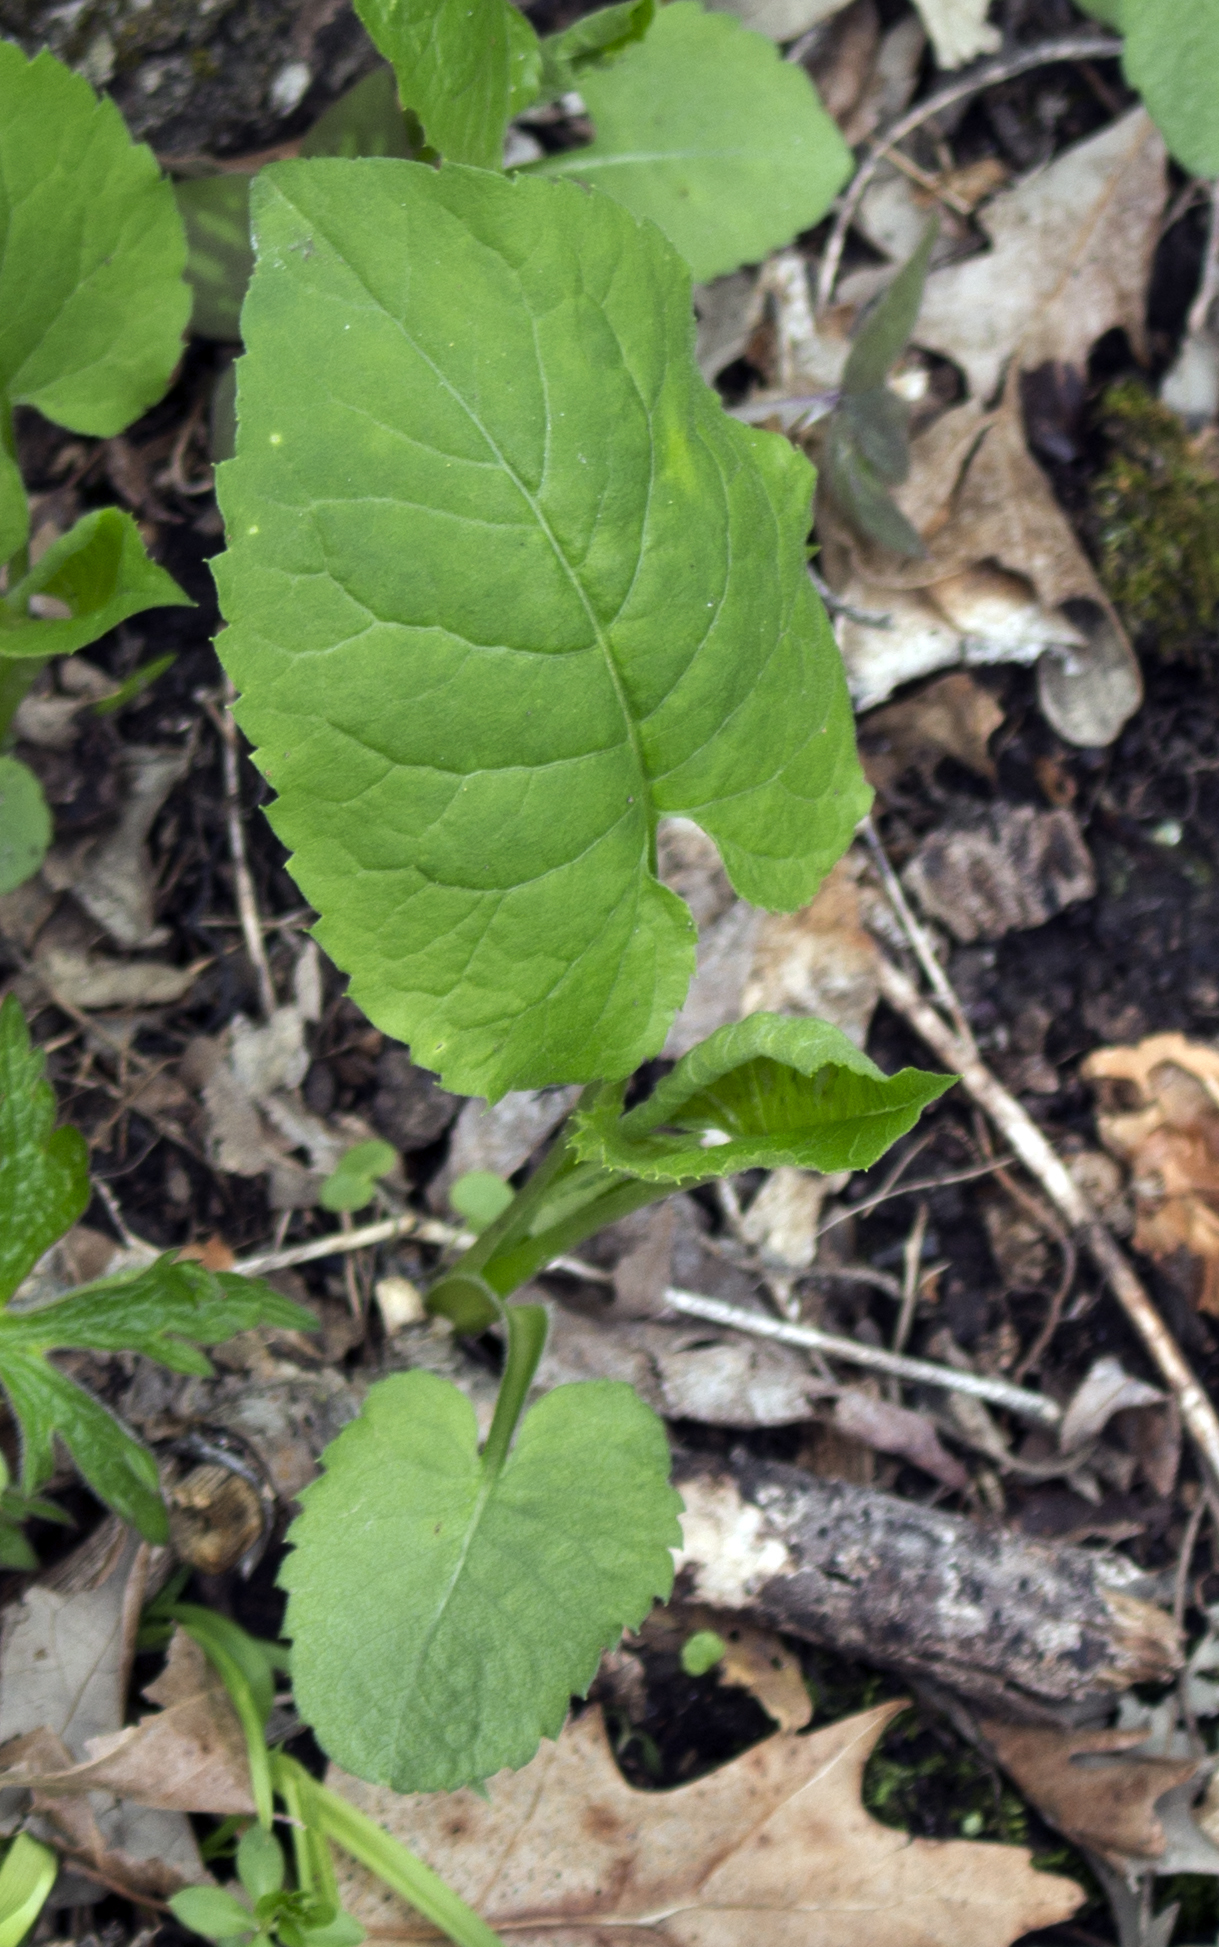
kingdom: Plantae
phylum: Tracheophyta
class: Magnoliopsida
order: Asterales
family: Asteraceae
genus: Eurybia
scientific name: Eurybia macrophylla
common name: Big-leaved aster
